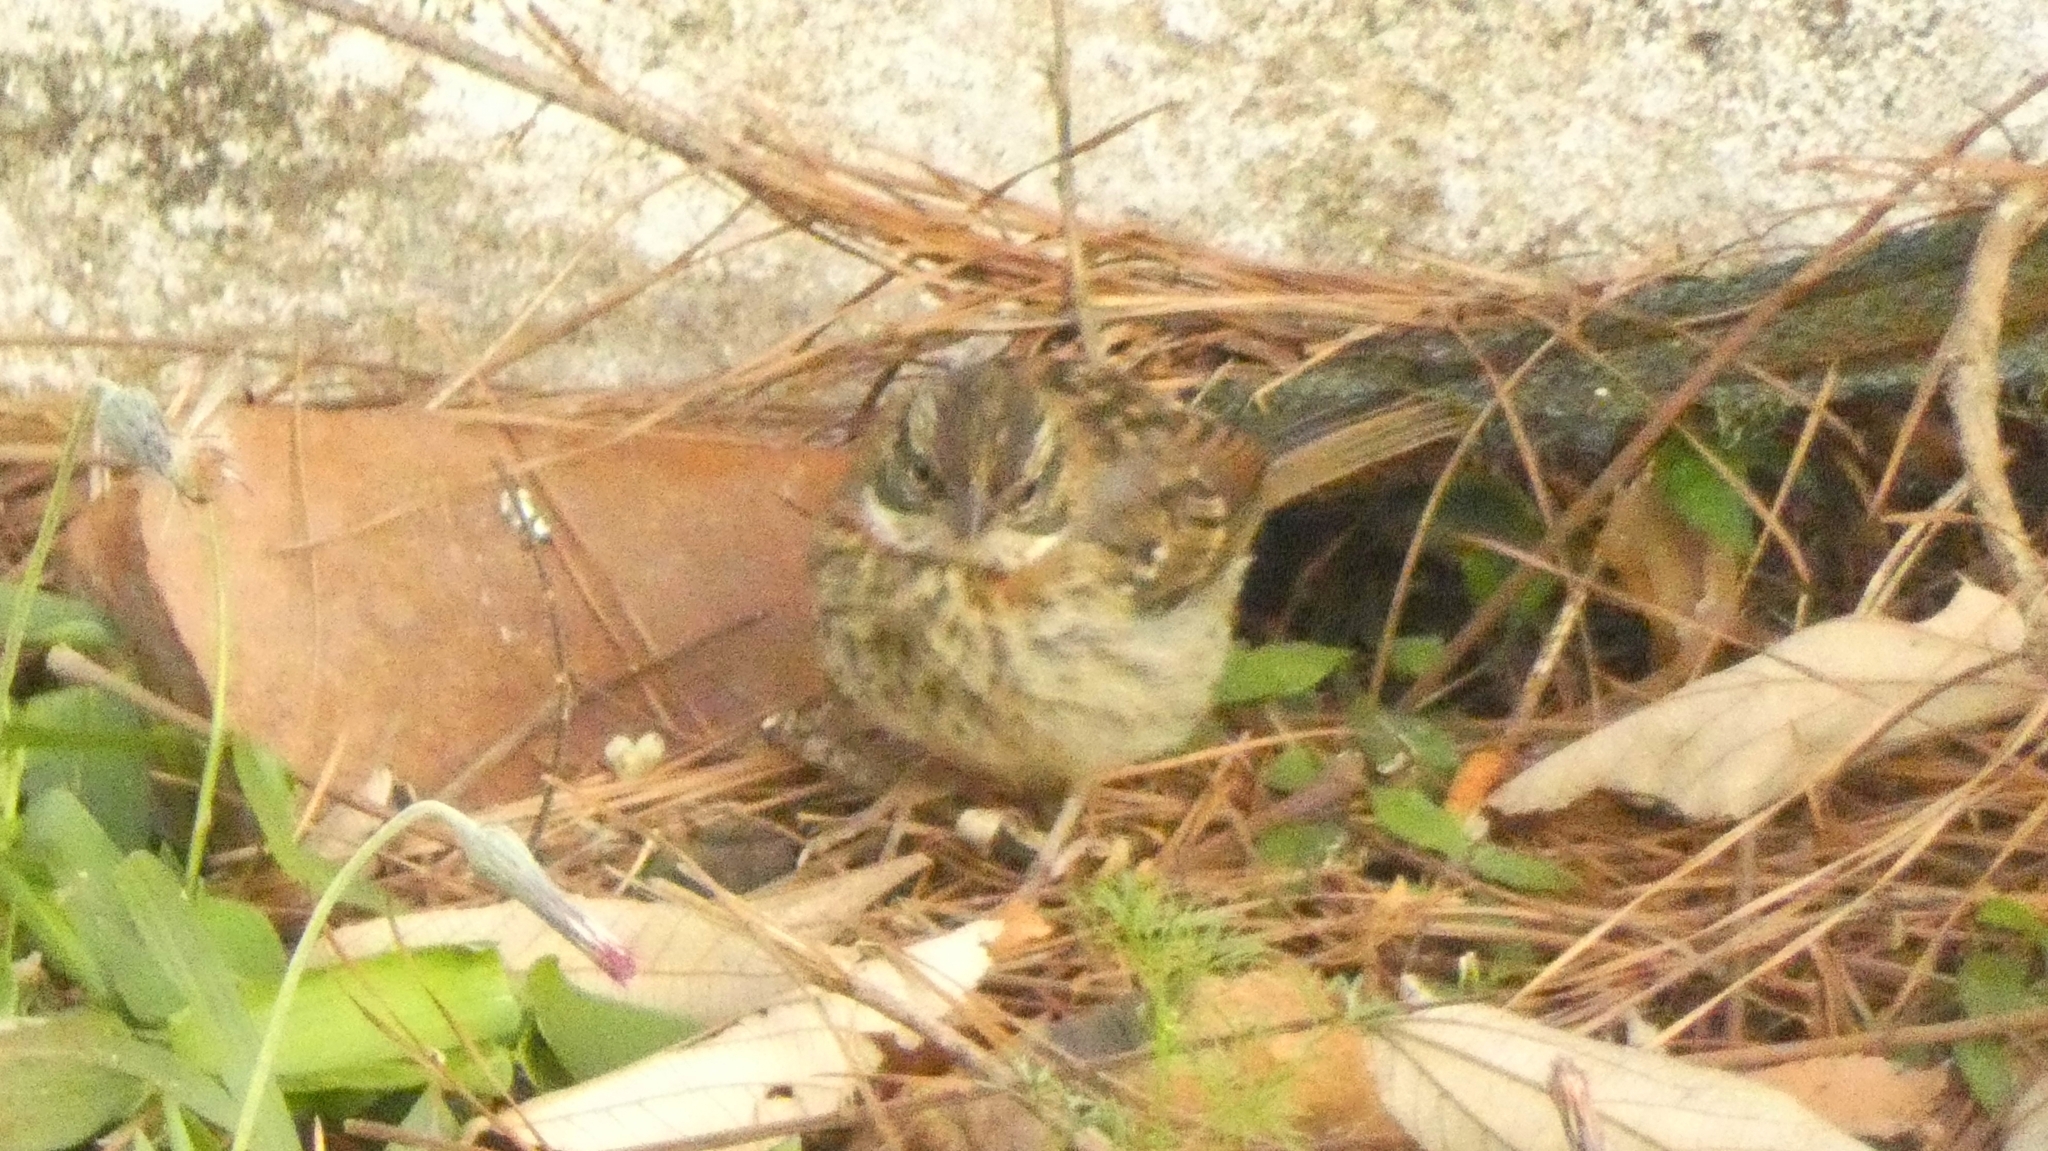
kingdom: Animalia
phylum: Chordata
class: Aves
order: Passeriformes
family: Passerellidae
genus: Zonotrichia
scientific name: Zonotrichia capensis
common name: Rufous-collared sparrow
